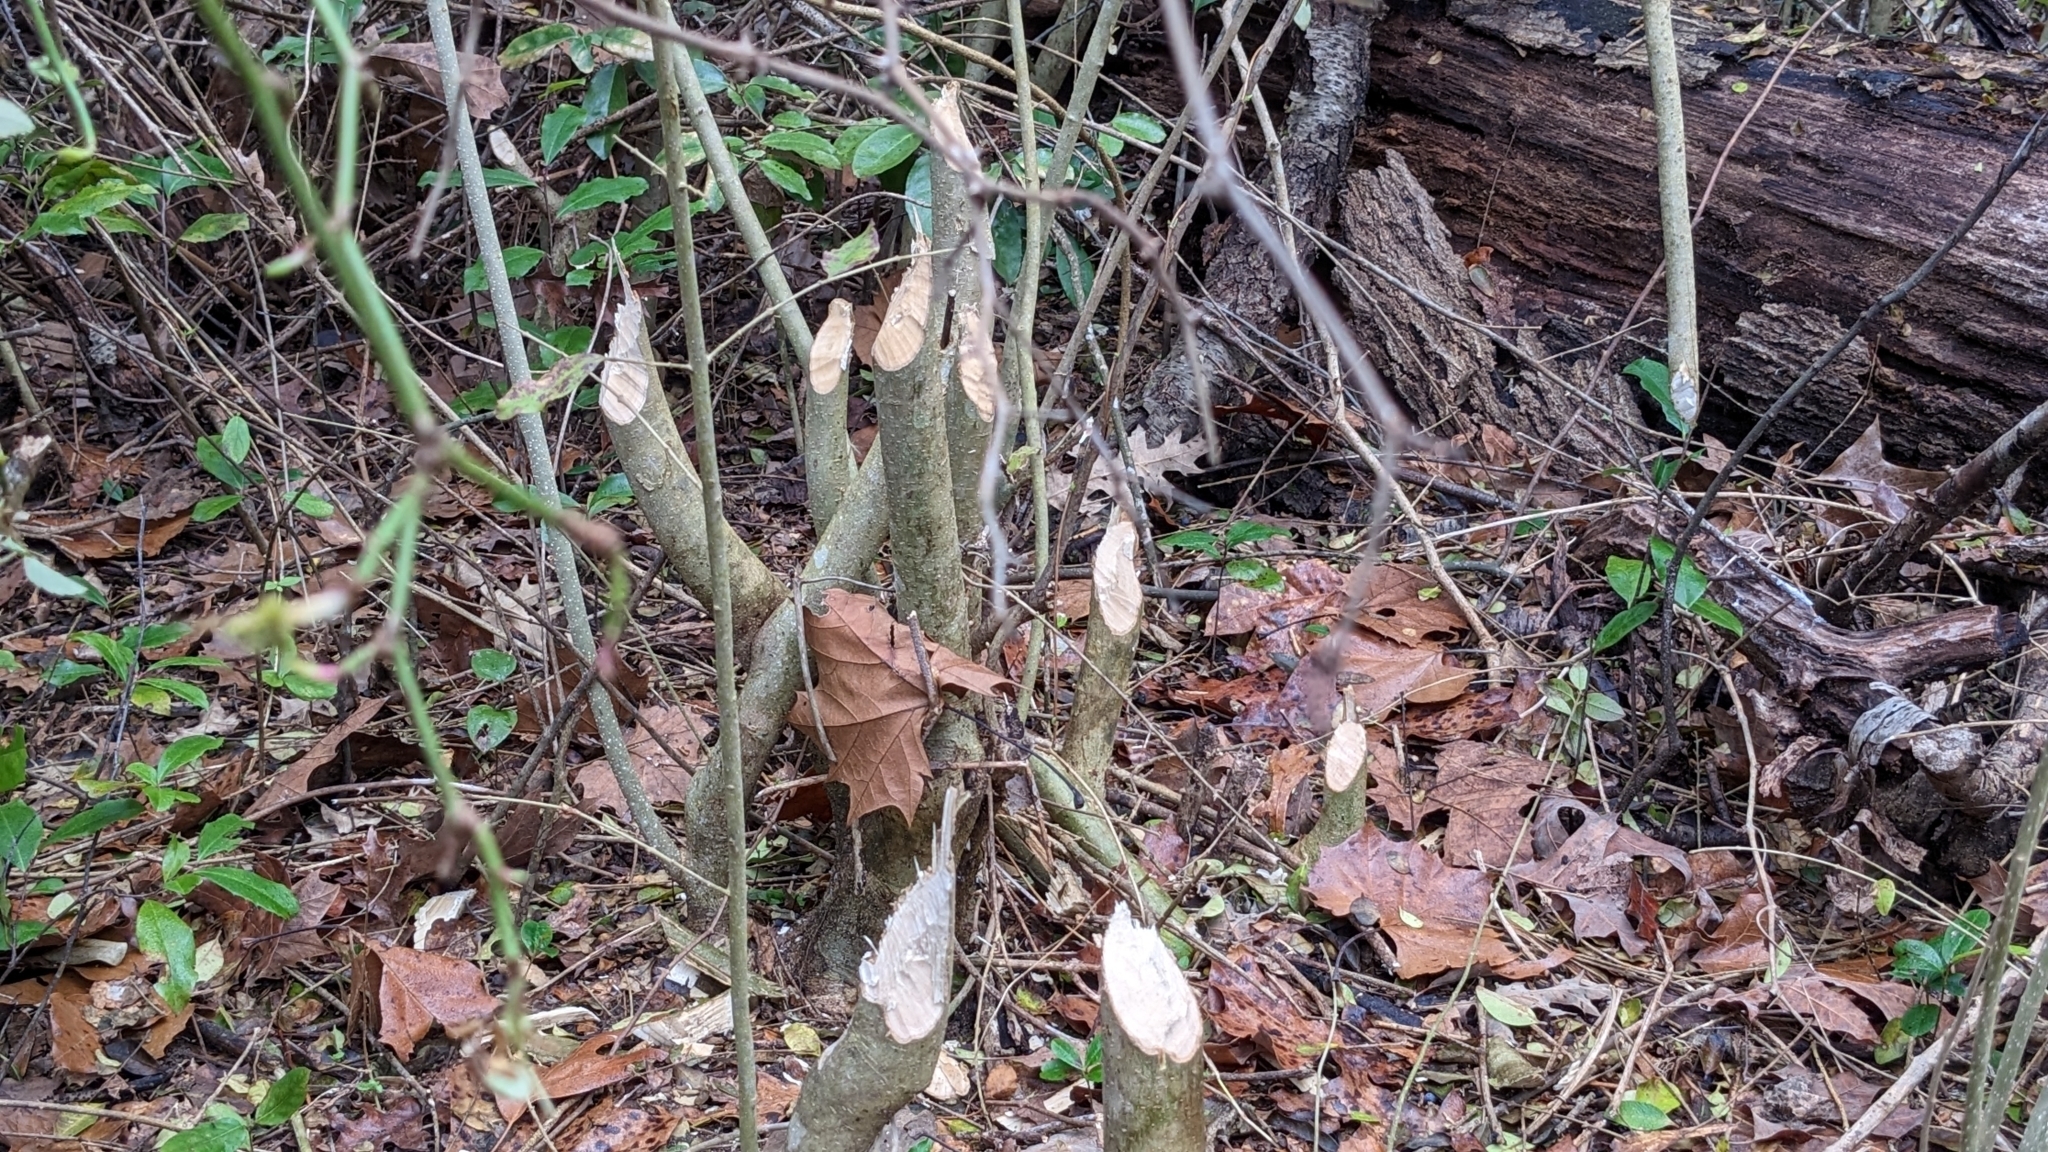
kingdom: Animalia
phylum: Chordata
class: Mammalia
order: Rodentia
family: Castoridae
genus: Castor
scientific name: Castor canadensis
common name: American beaver
